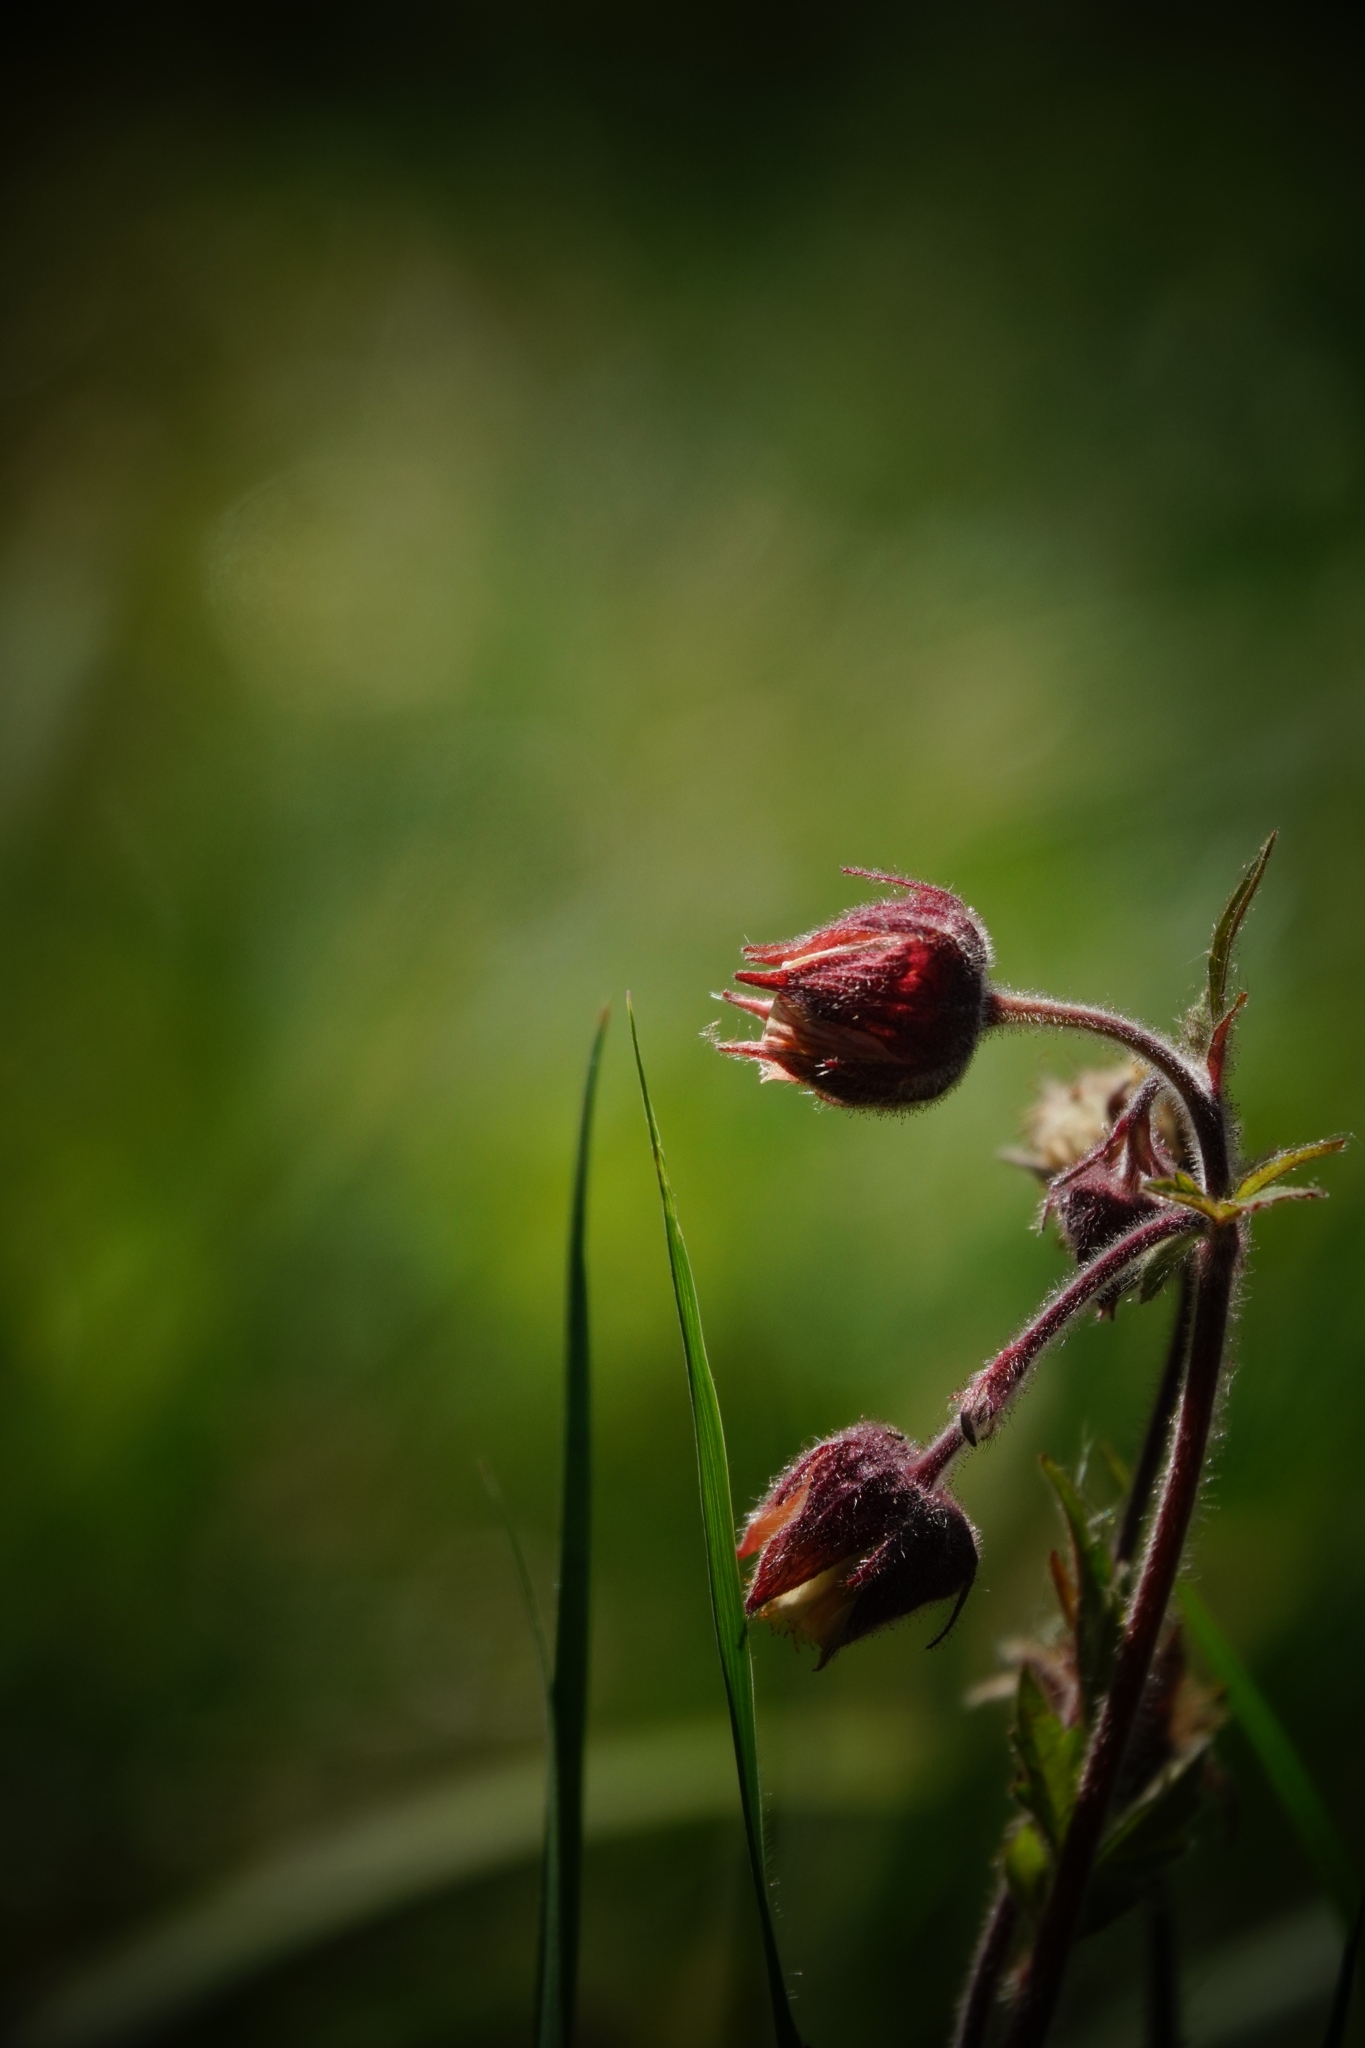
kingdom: Plantae
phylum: Tracheophyta
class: Magnoliopsida
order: Rosales
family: Rosaceae
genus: Geum
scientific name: Geum rivale
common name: Water avens
